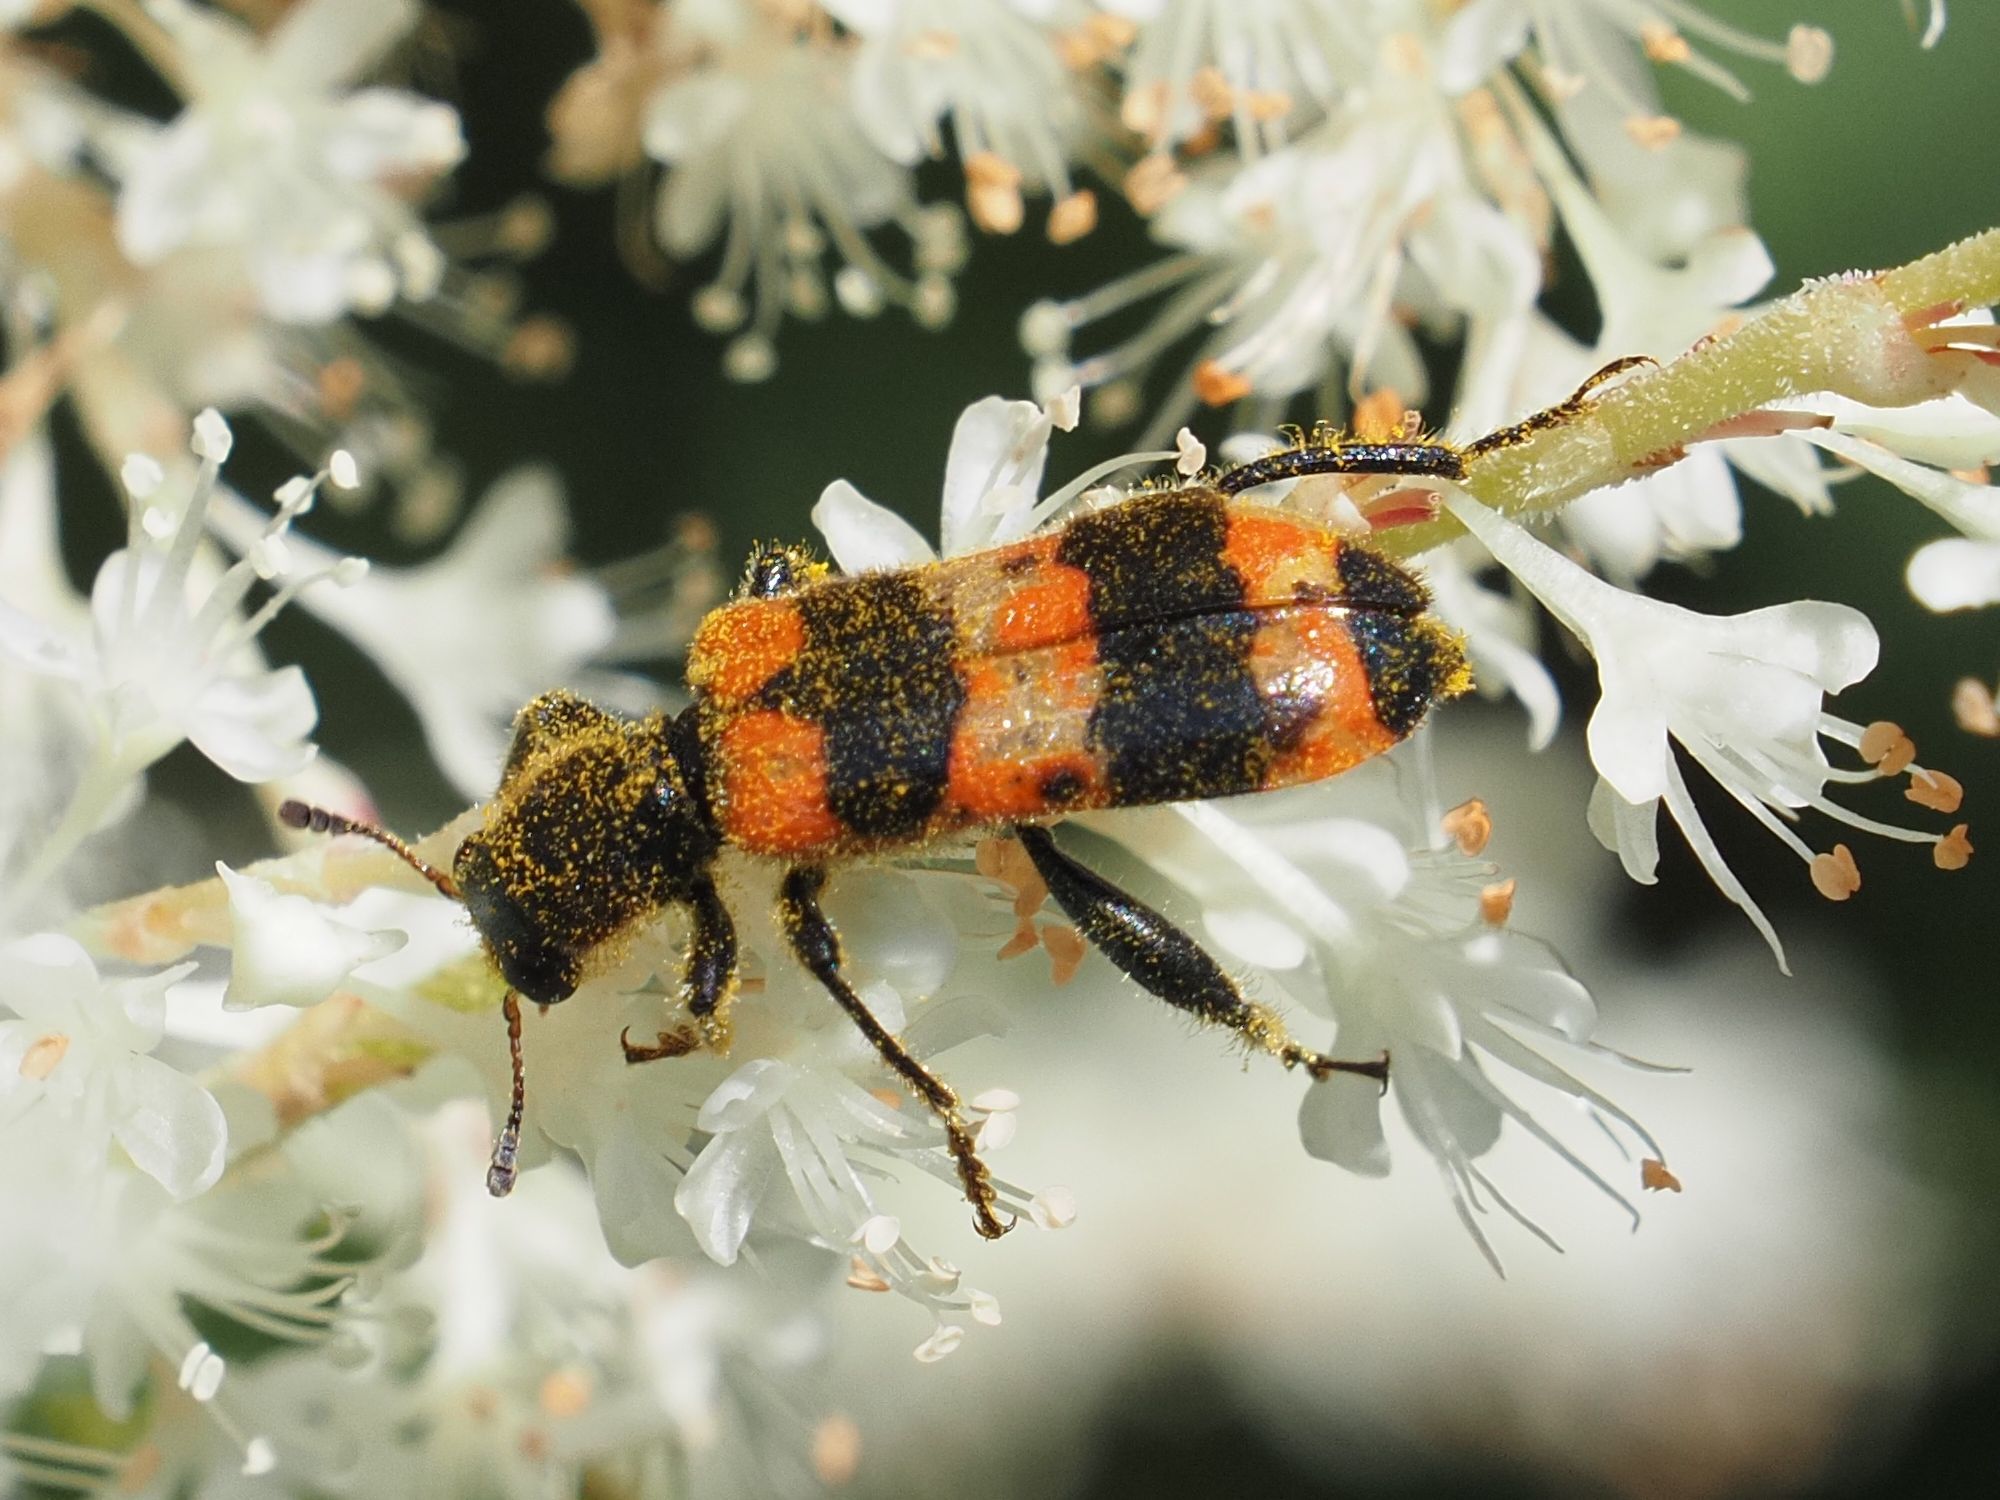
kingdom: Animalia
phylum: Arthropoda
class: Insecta
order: Coleoptera
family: Cleridae
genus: Trichodes
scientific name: Trichodes apiarius
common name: Bee-eating beetle
